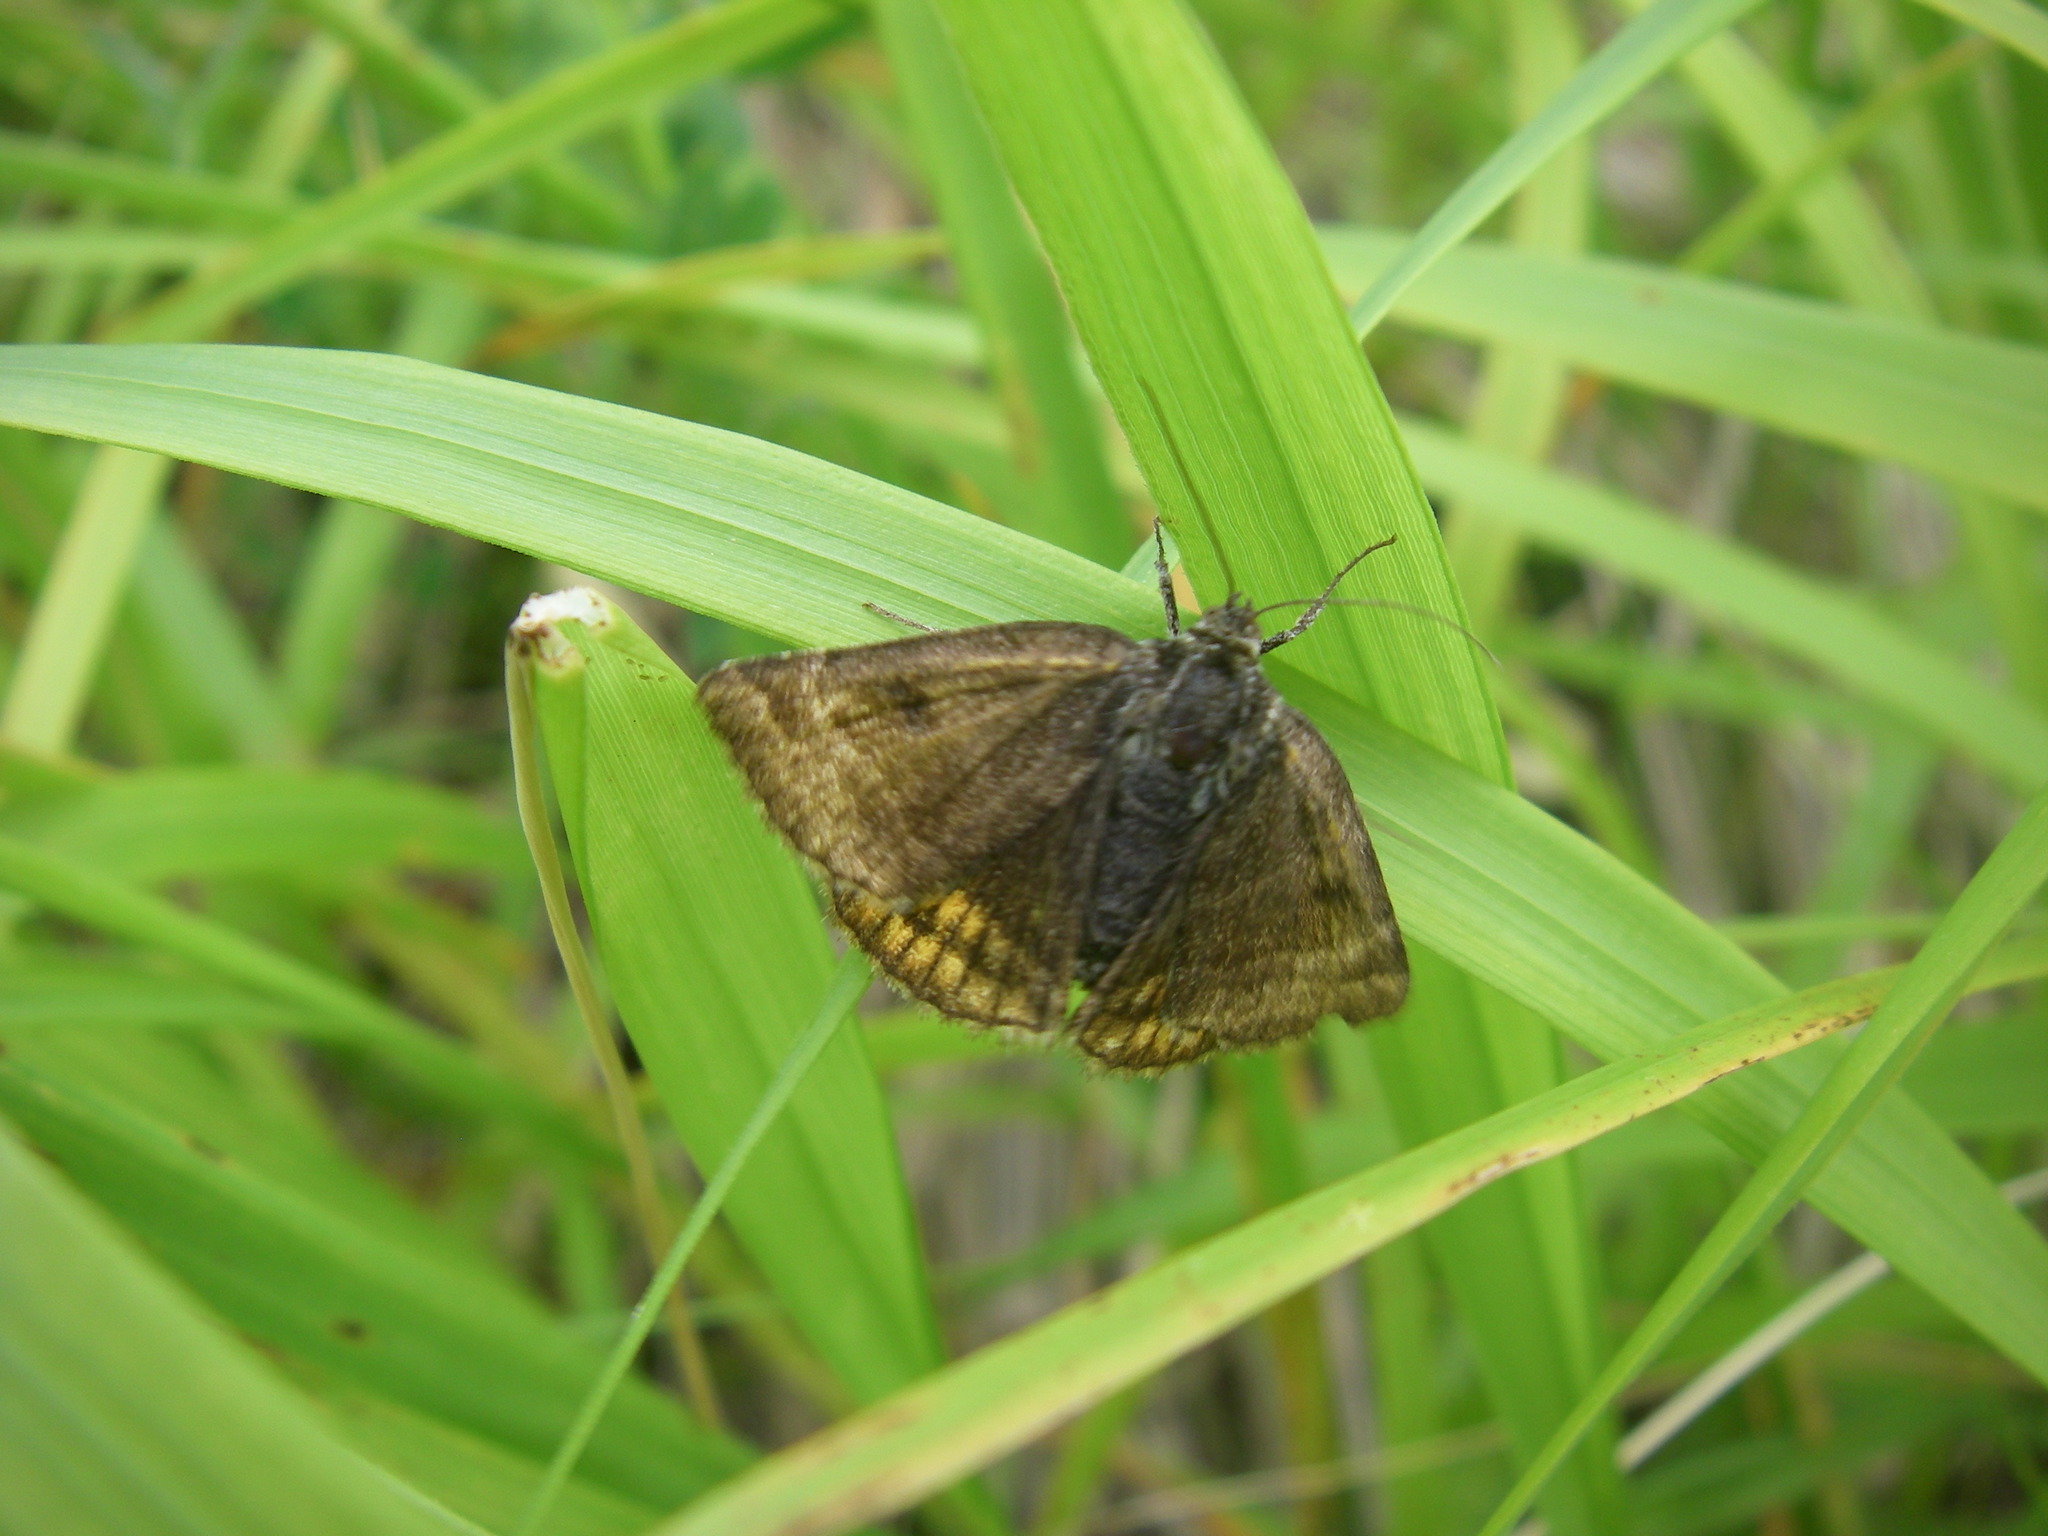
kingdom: Animalia
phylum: Arthropoda
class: Insecta
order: Lepidoptera
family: Erebidae
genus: Euclidia
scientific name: Euclidia glyphica
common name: Burnet companion
